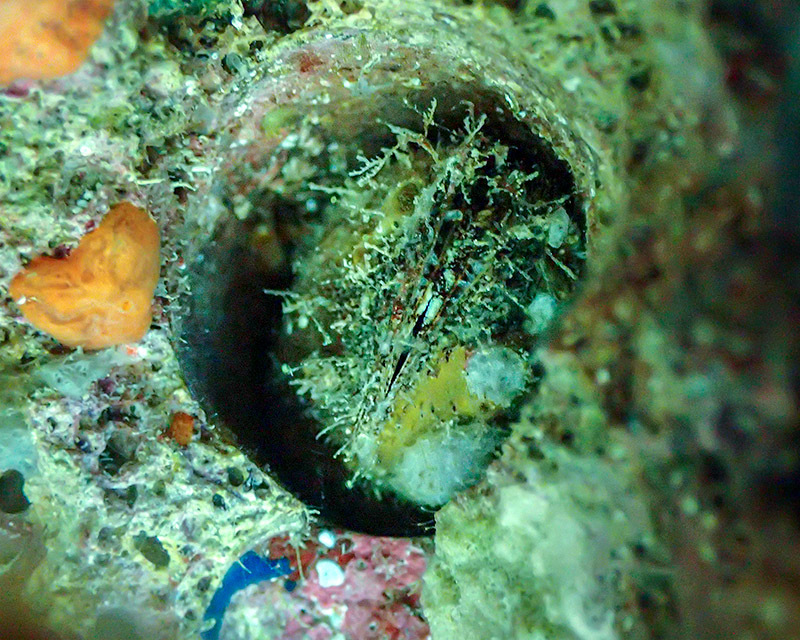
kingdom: Animalia
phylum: Mollusca
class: Bivalvia
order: Mytilida
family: Mytilidae
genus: Lithophaga
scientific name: Lithophaga lithophaga
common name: European date mussel
